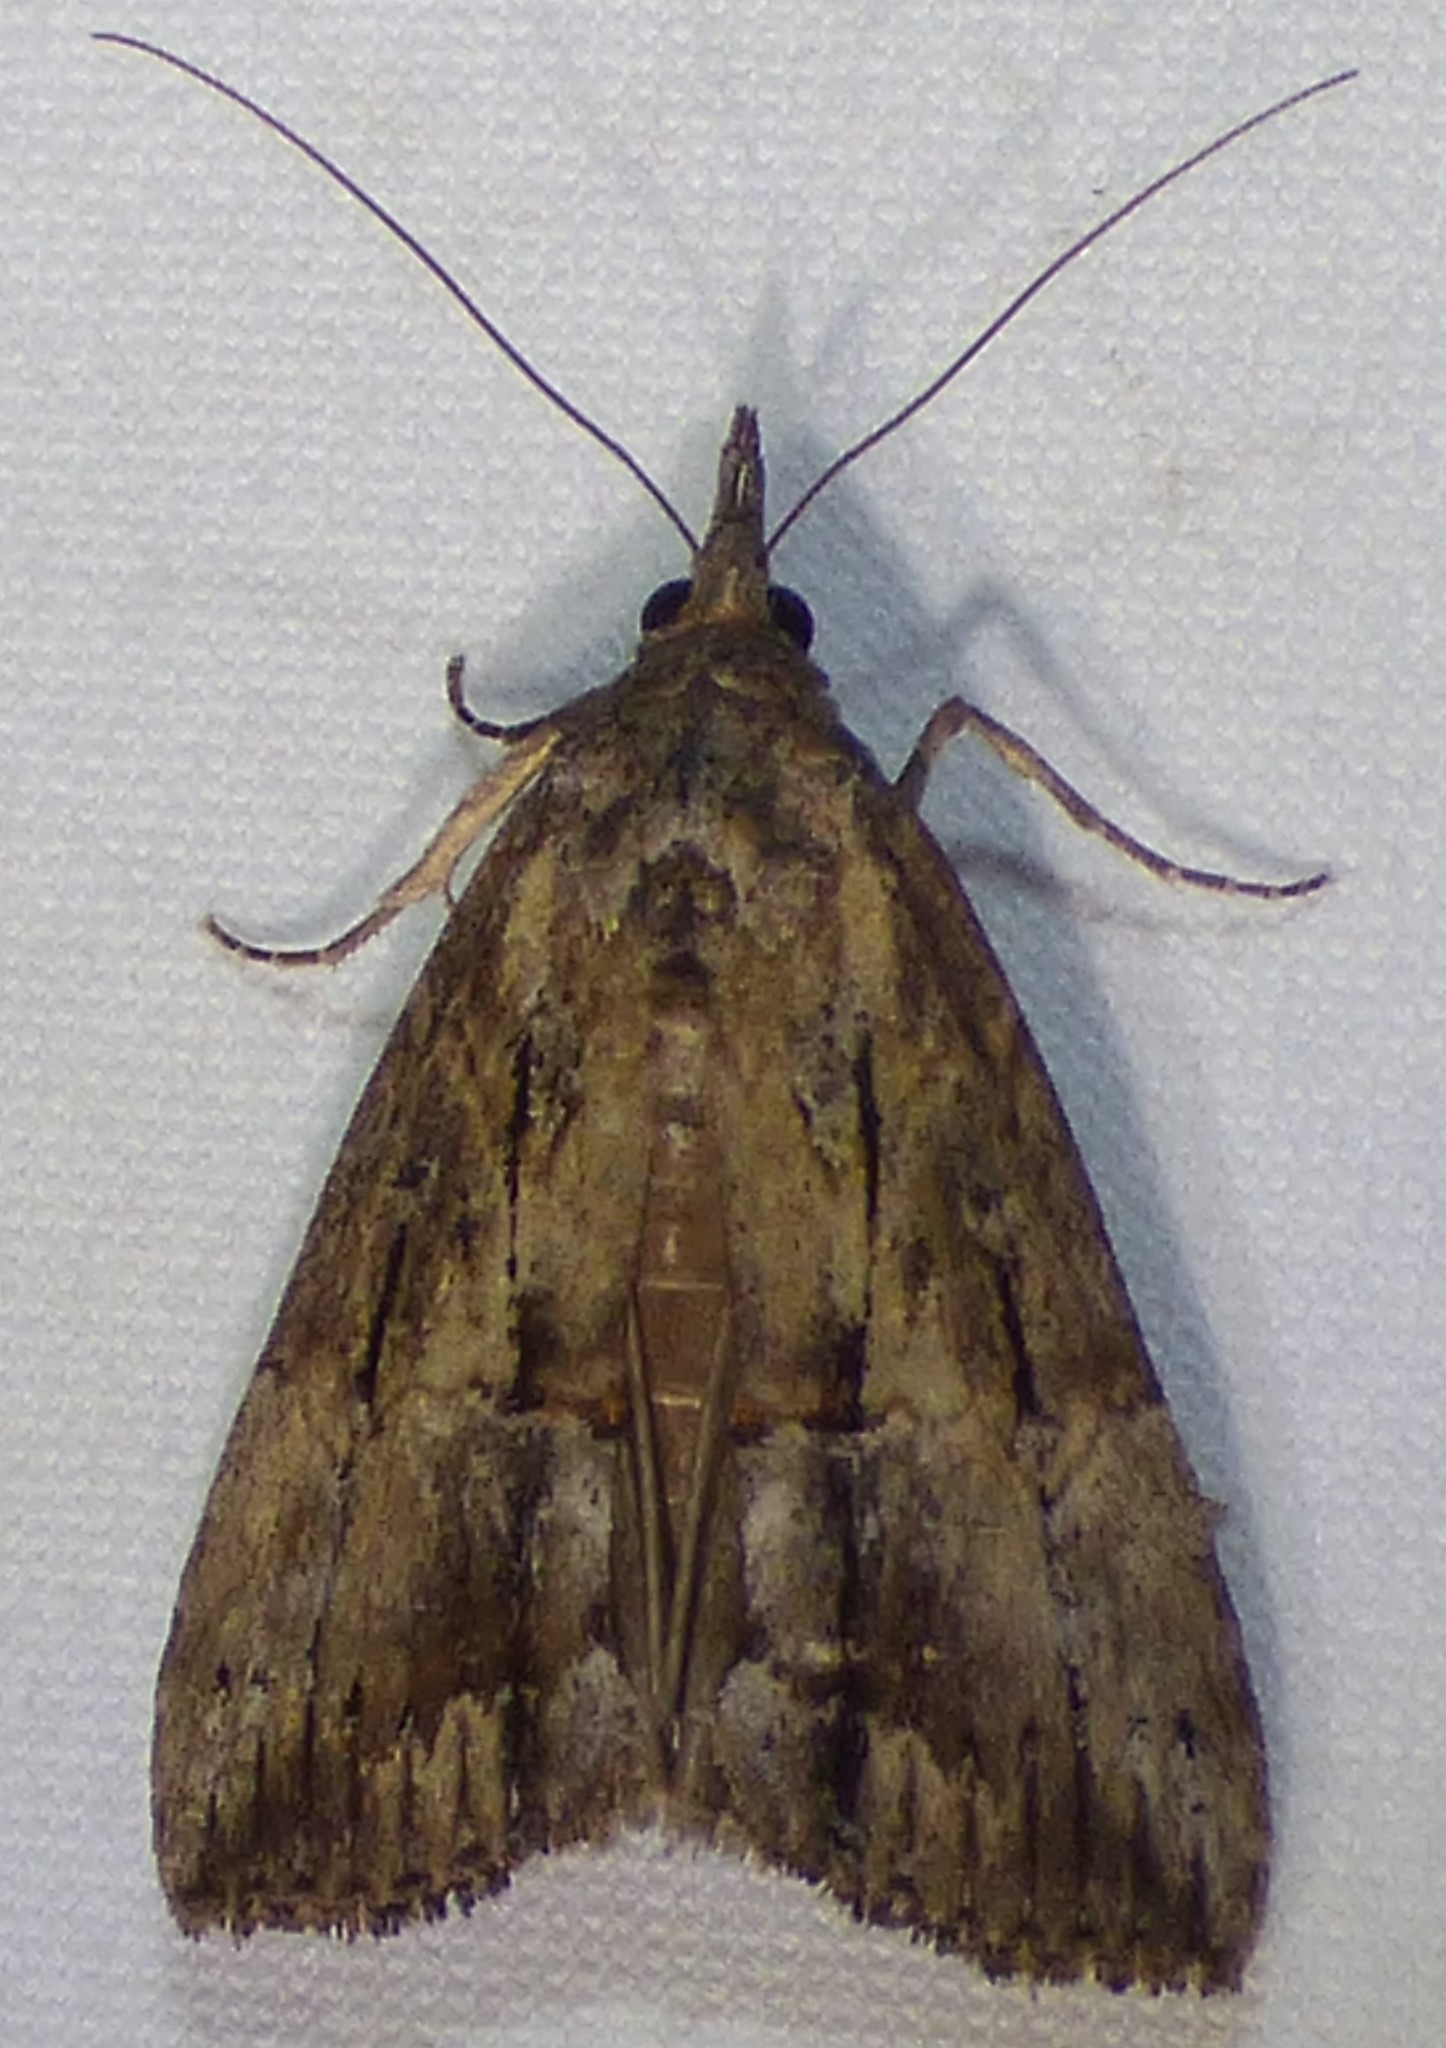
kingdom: Animalia
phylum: Arthropoda
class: Insecta
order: Lepidoptera
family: Erebidae
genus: Hypena
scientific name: Hypena scabra
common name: Green cloverworm
